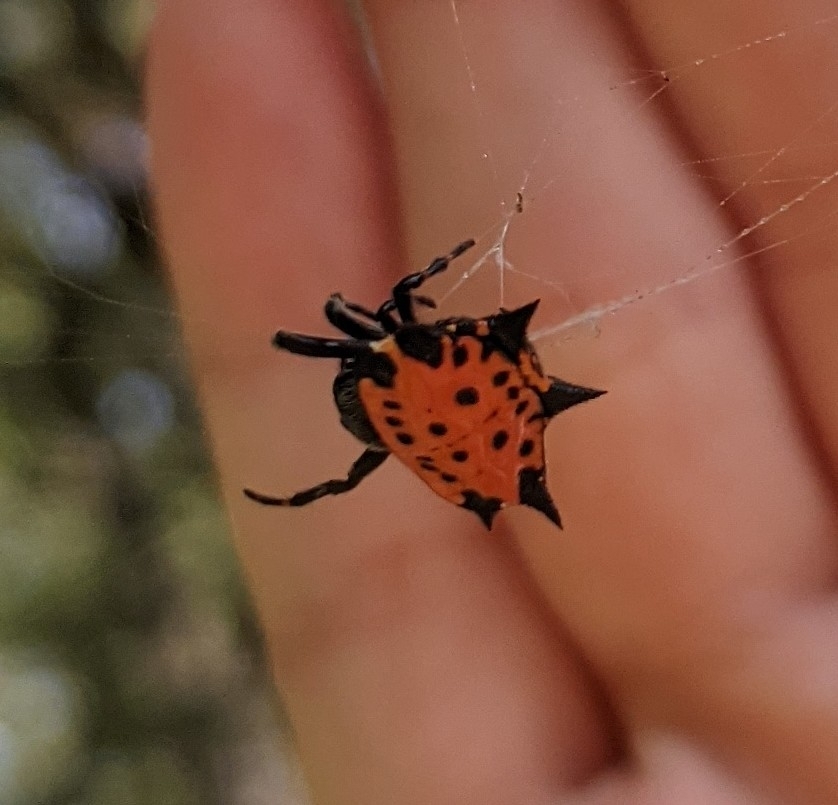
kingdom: Animalia
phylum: Arthropoda
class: Arachnida
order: Araneae
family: Araneidae
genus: Gasteracantha
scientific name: Gasteracantha cancriformis
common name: Orb weavers
